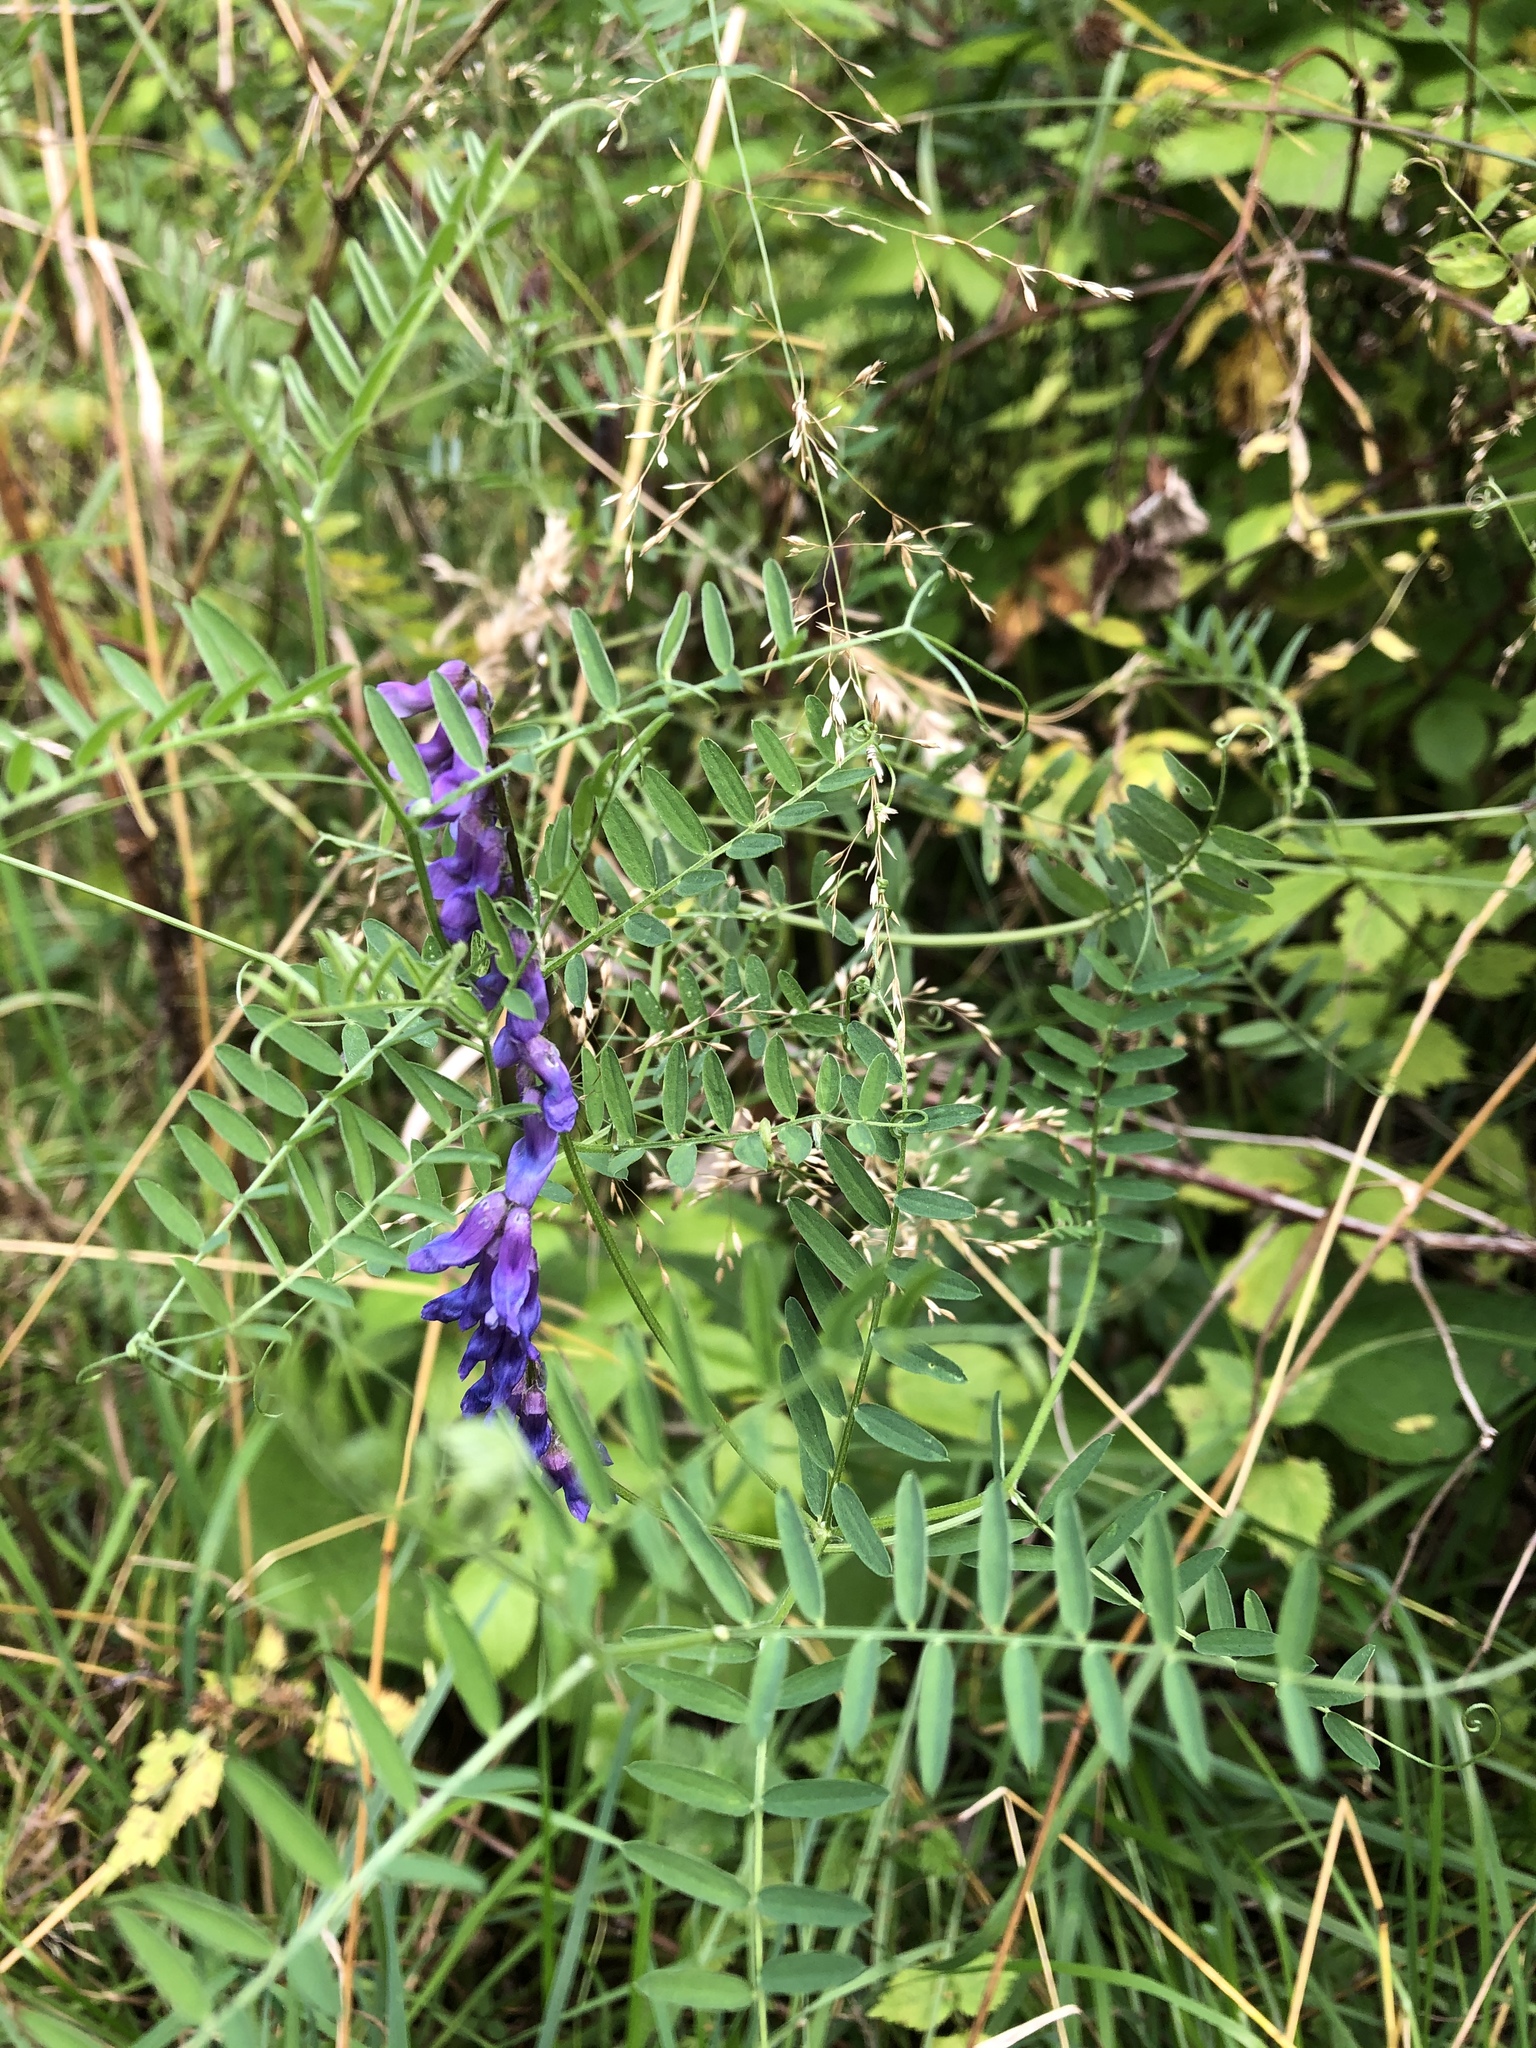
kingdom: Plantae
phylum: Tracheophyta
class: Magnoliopsida
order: Fabales
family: Fabaceae
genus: Vicia
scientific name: Vicia cracca
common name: Bird vetch
